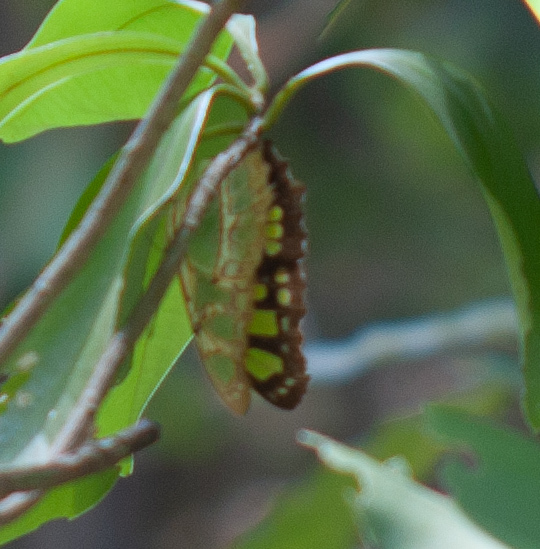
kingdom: Animalia
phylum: Arthropoda
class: Insecta
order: Lepidoptera
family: Nymphalidae
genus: Siproeta
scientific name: Siproeta stelenes
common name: Malachite
